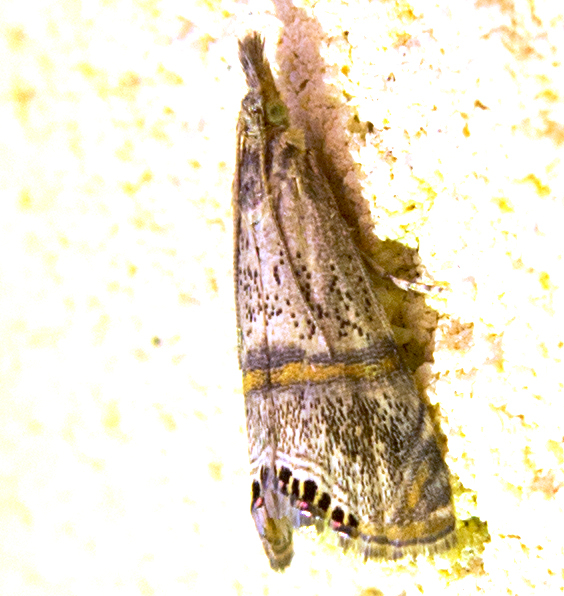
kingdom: Animalia
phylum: Arthropoda
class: Insecta
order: Lepidoptera
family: Crambidae
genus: Euchromius
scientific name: Euchromius superbella
